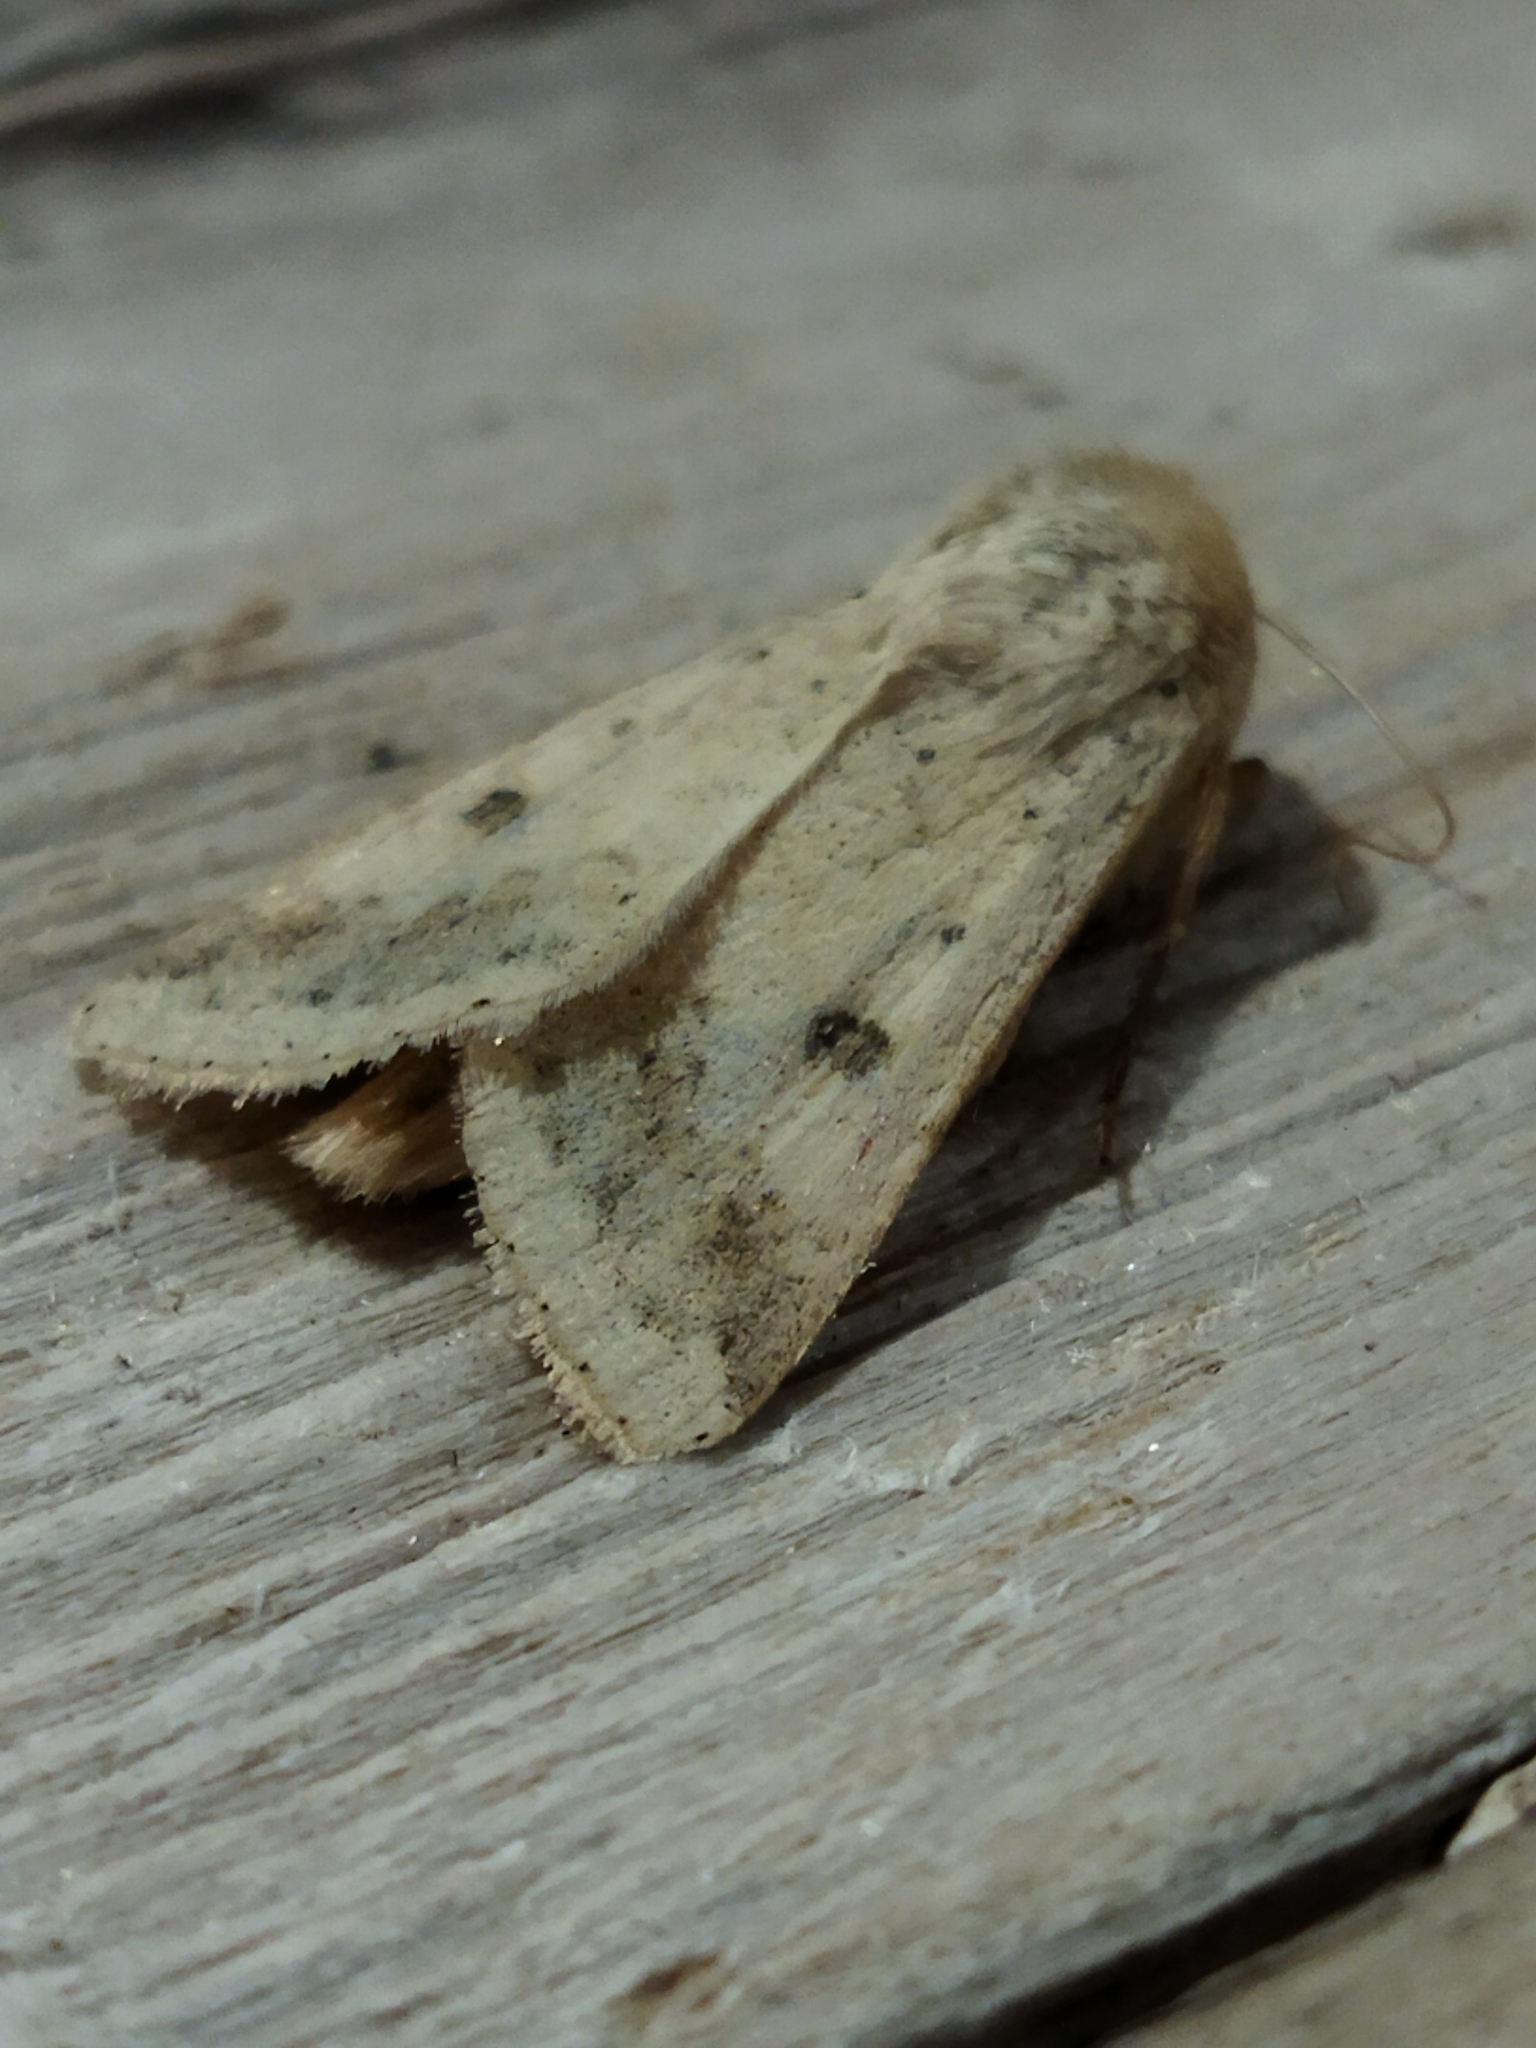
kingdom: Animalia
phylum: Arthropoda
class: Insecta
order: Lepidoptera
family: Noctuidae
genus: Helicoverpa
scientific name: Helicoverpa armigera
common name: Cotton bollworm
